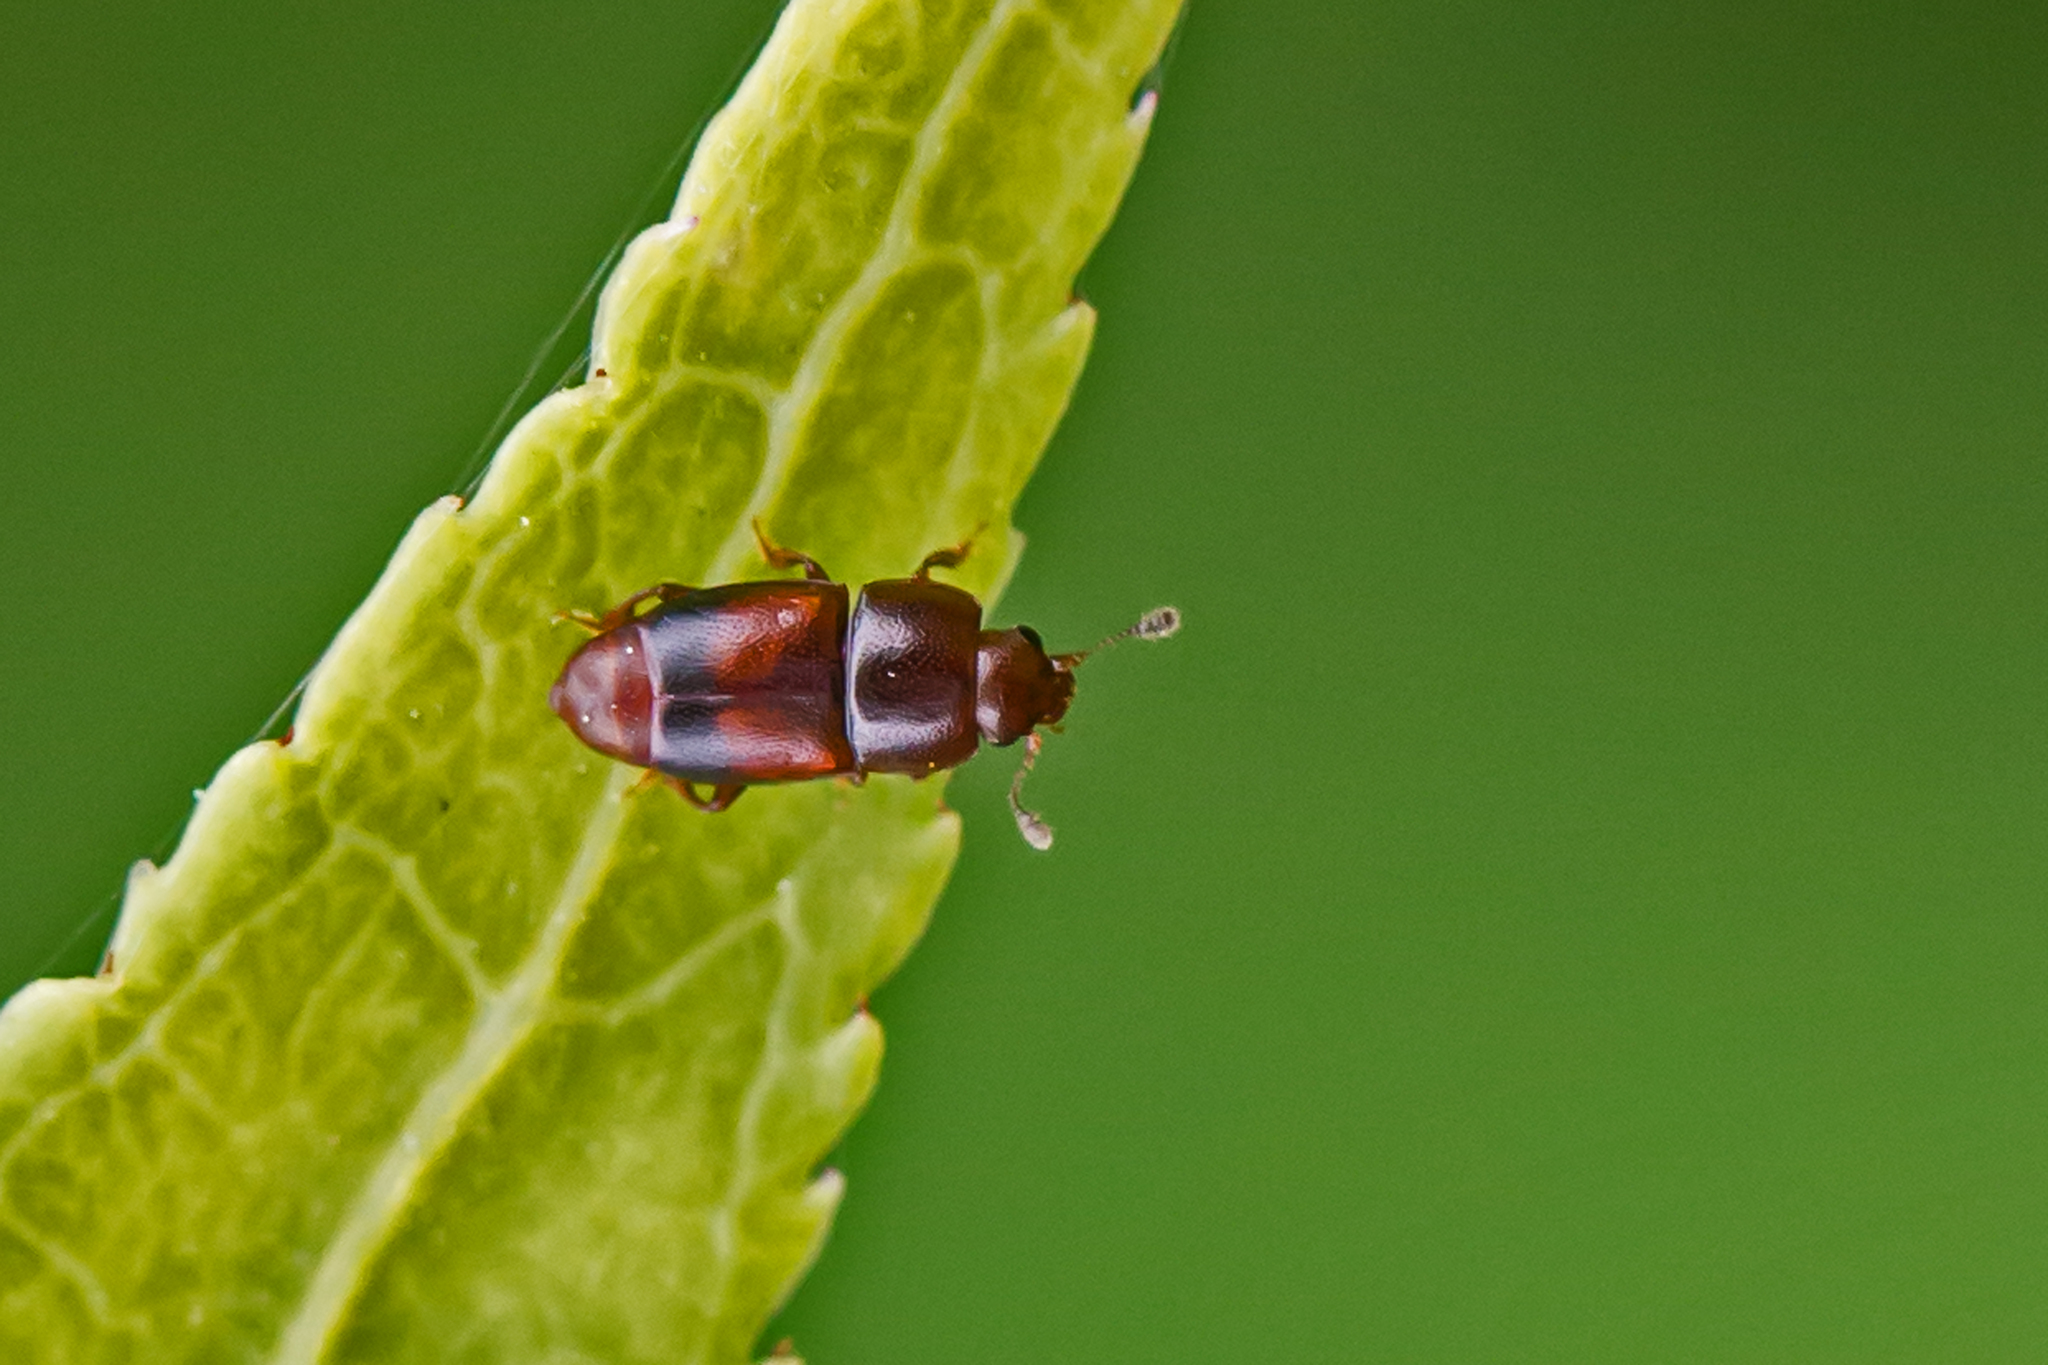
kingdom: Animalia
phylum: Arthropoda
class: Insecta
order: Coleoptera
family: Nitidulidae
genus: Carpophilus
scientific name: Carpophilus antiquus
